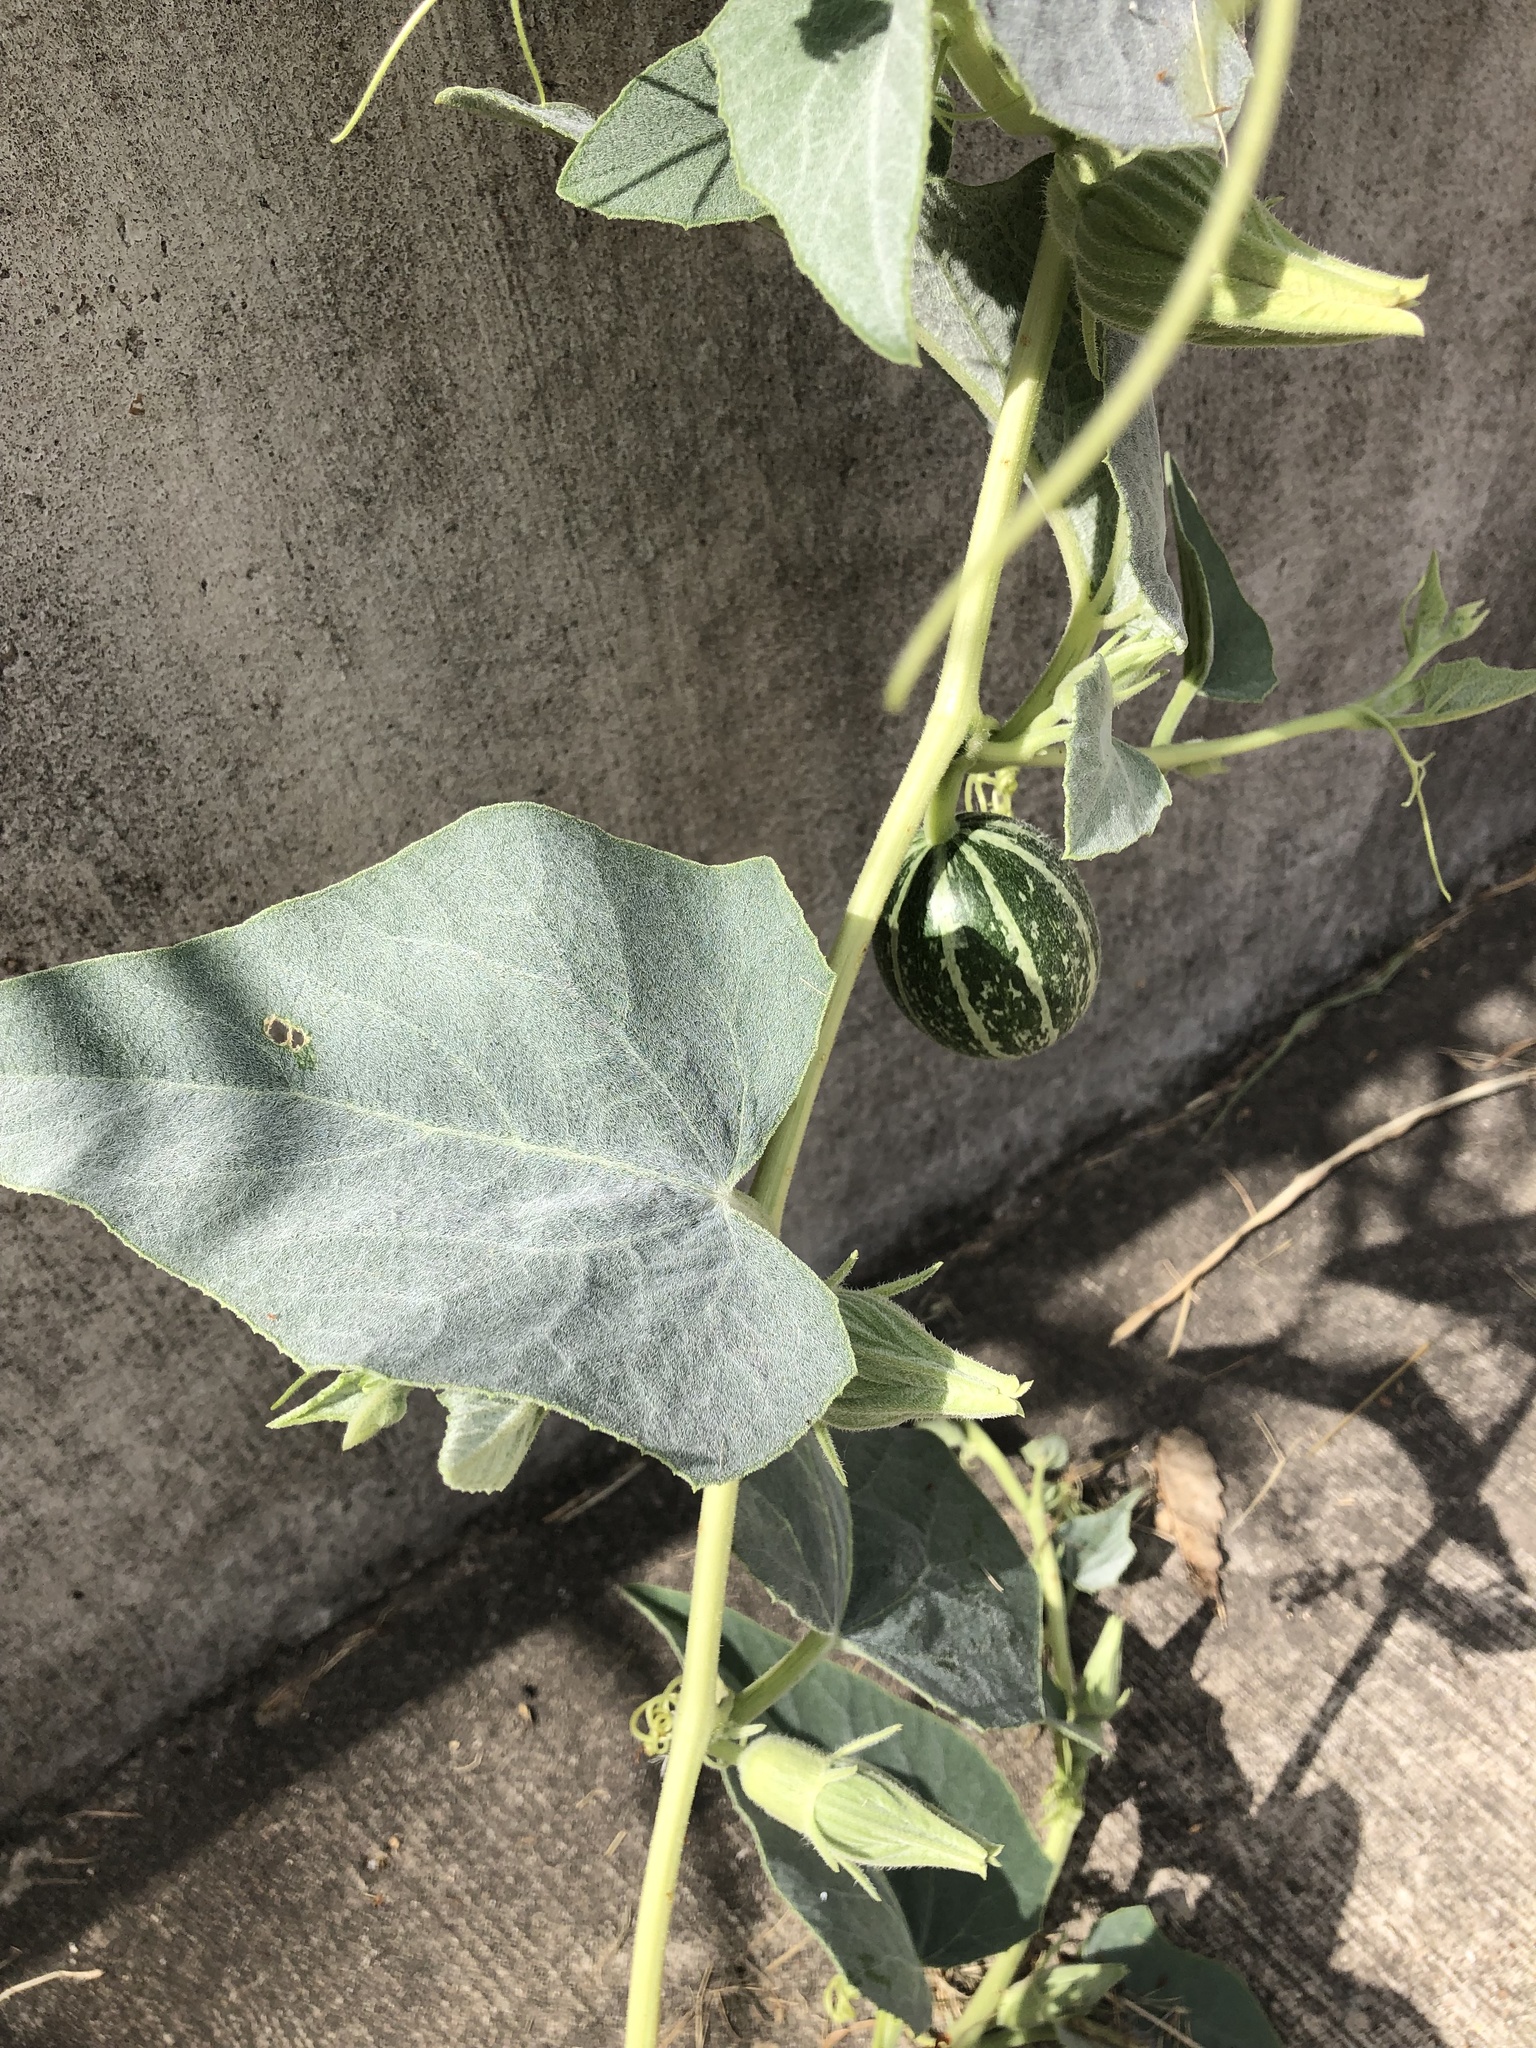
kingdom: Plantae
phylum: Tracheophyta
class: Magnoliopsida
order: Cucurbitales
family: Cucurbitaceae
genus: Cucurbita
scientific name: Cucurbita foetidissima
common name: Buffalo gourd
